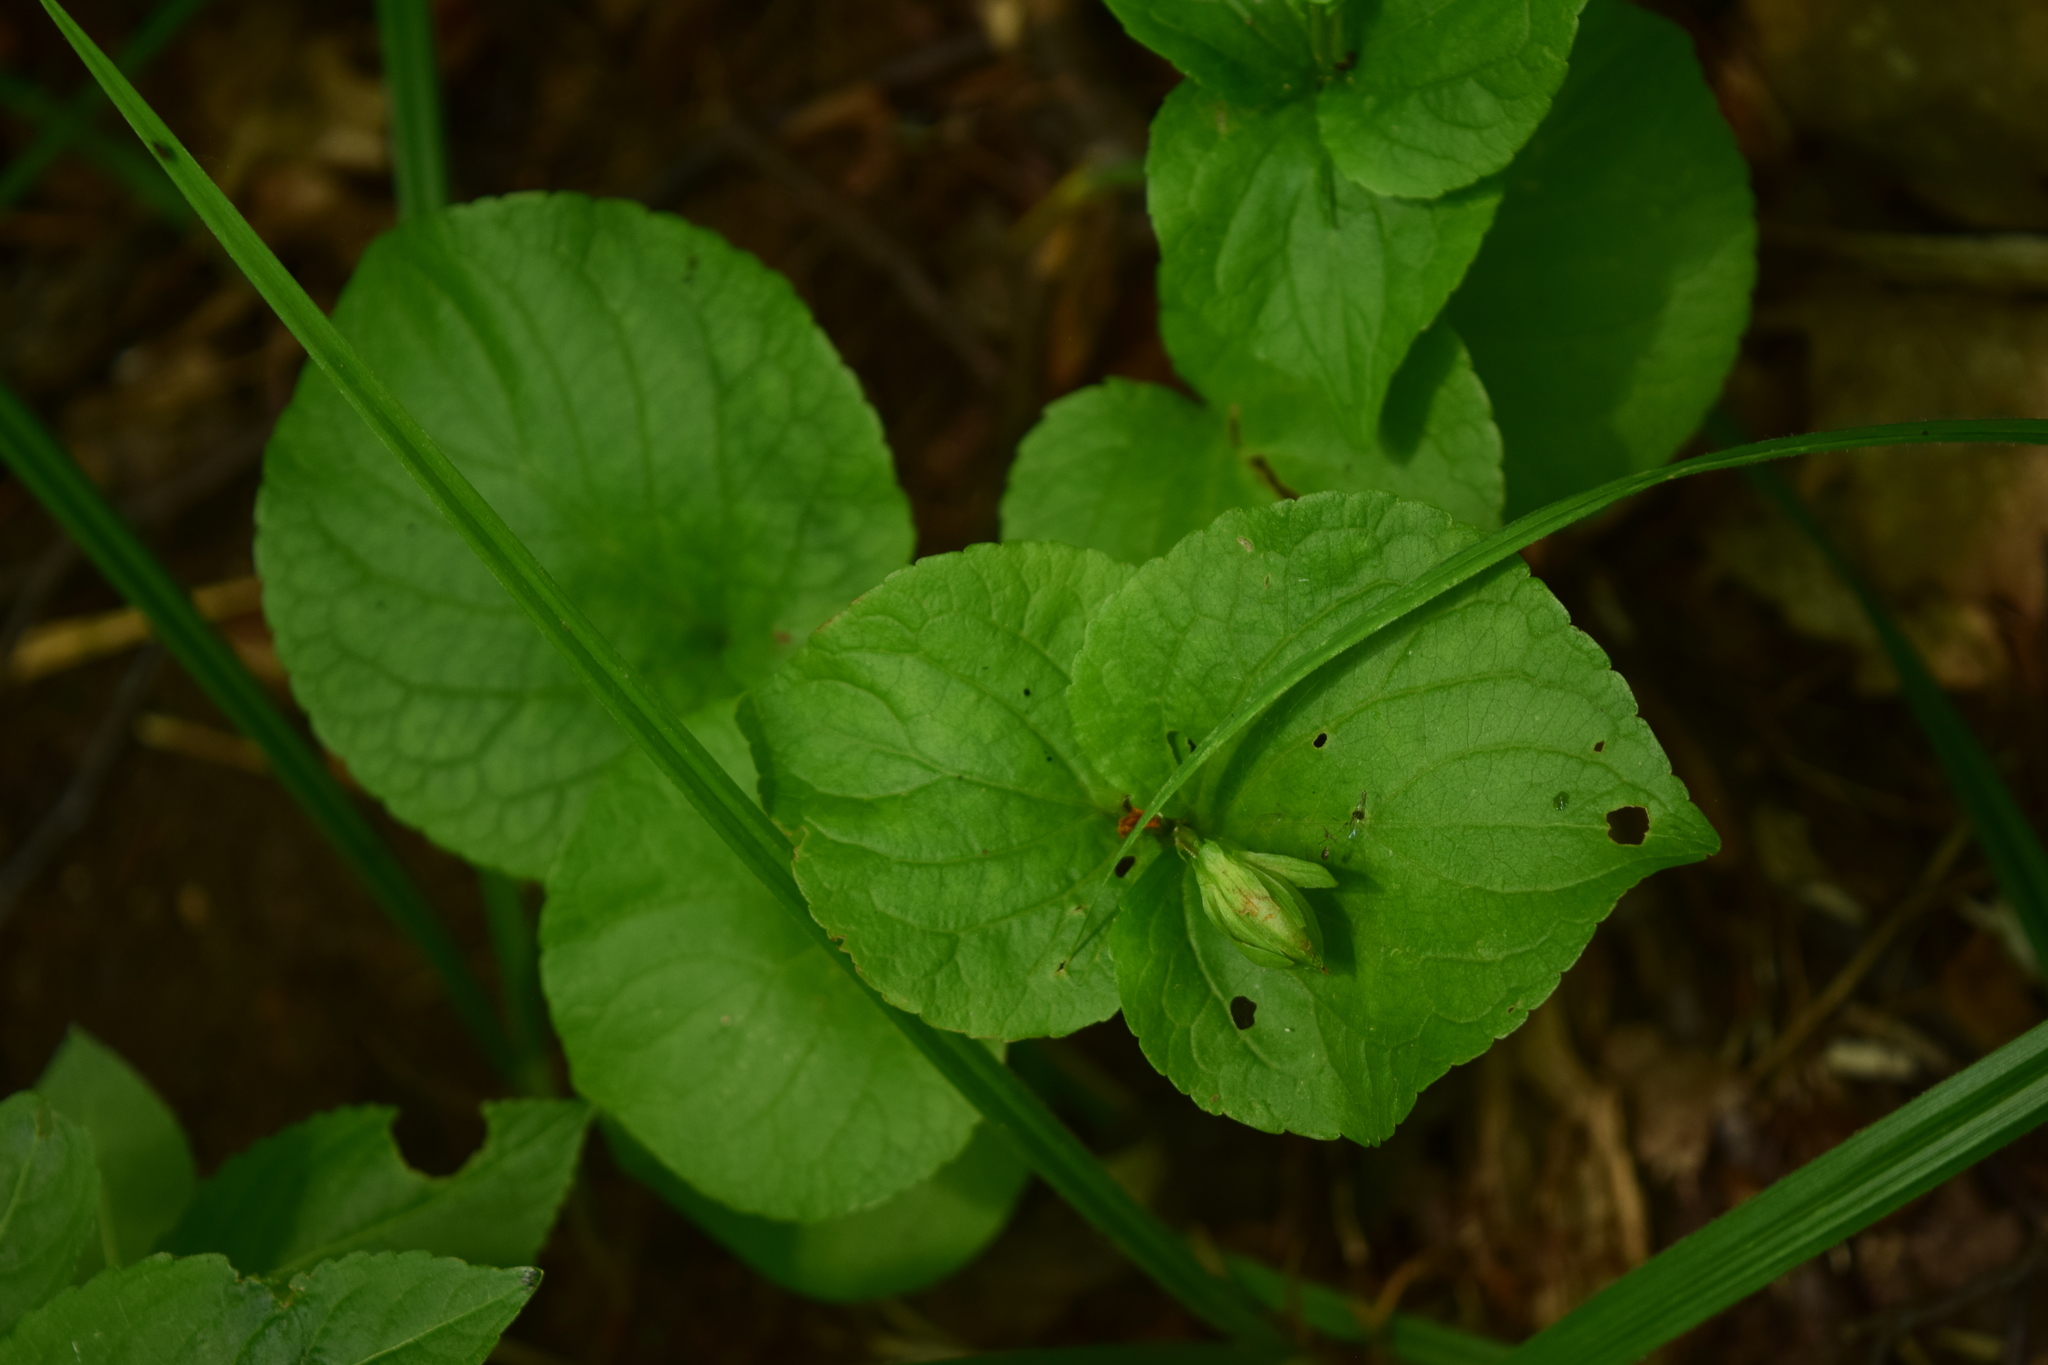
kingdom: Plantae
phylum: Tracheophyta
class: Magnoliopsida
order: Malpighiales
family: Violaceae
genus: Viola
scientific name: Viola mirabilis
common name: Wonder violet
